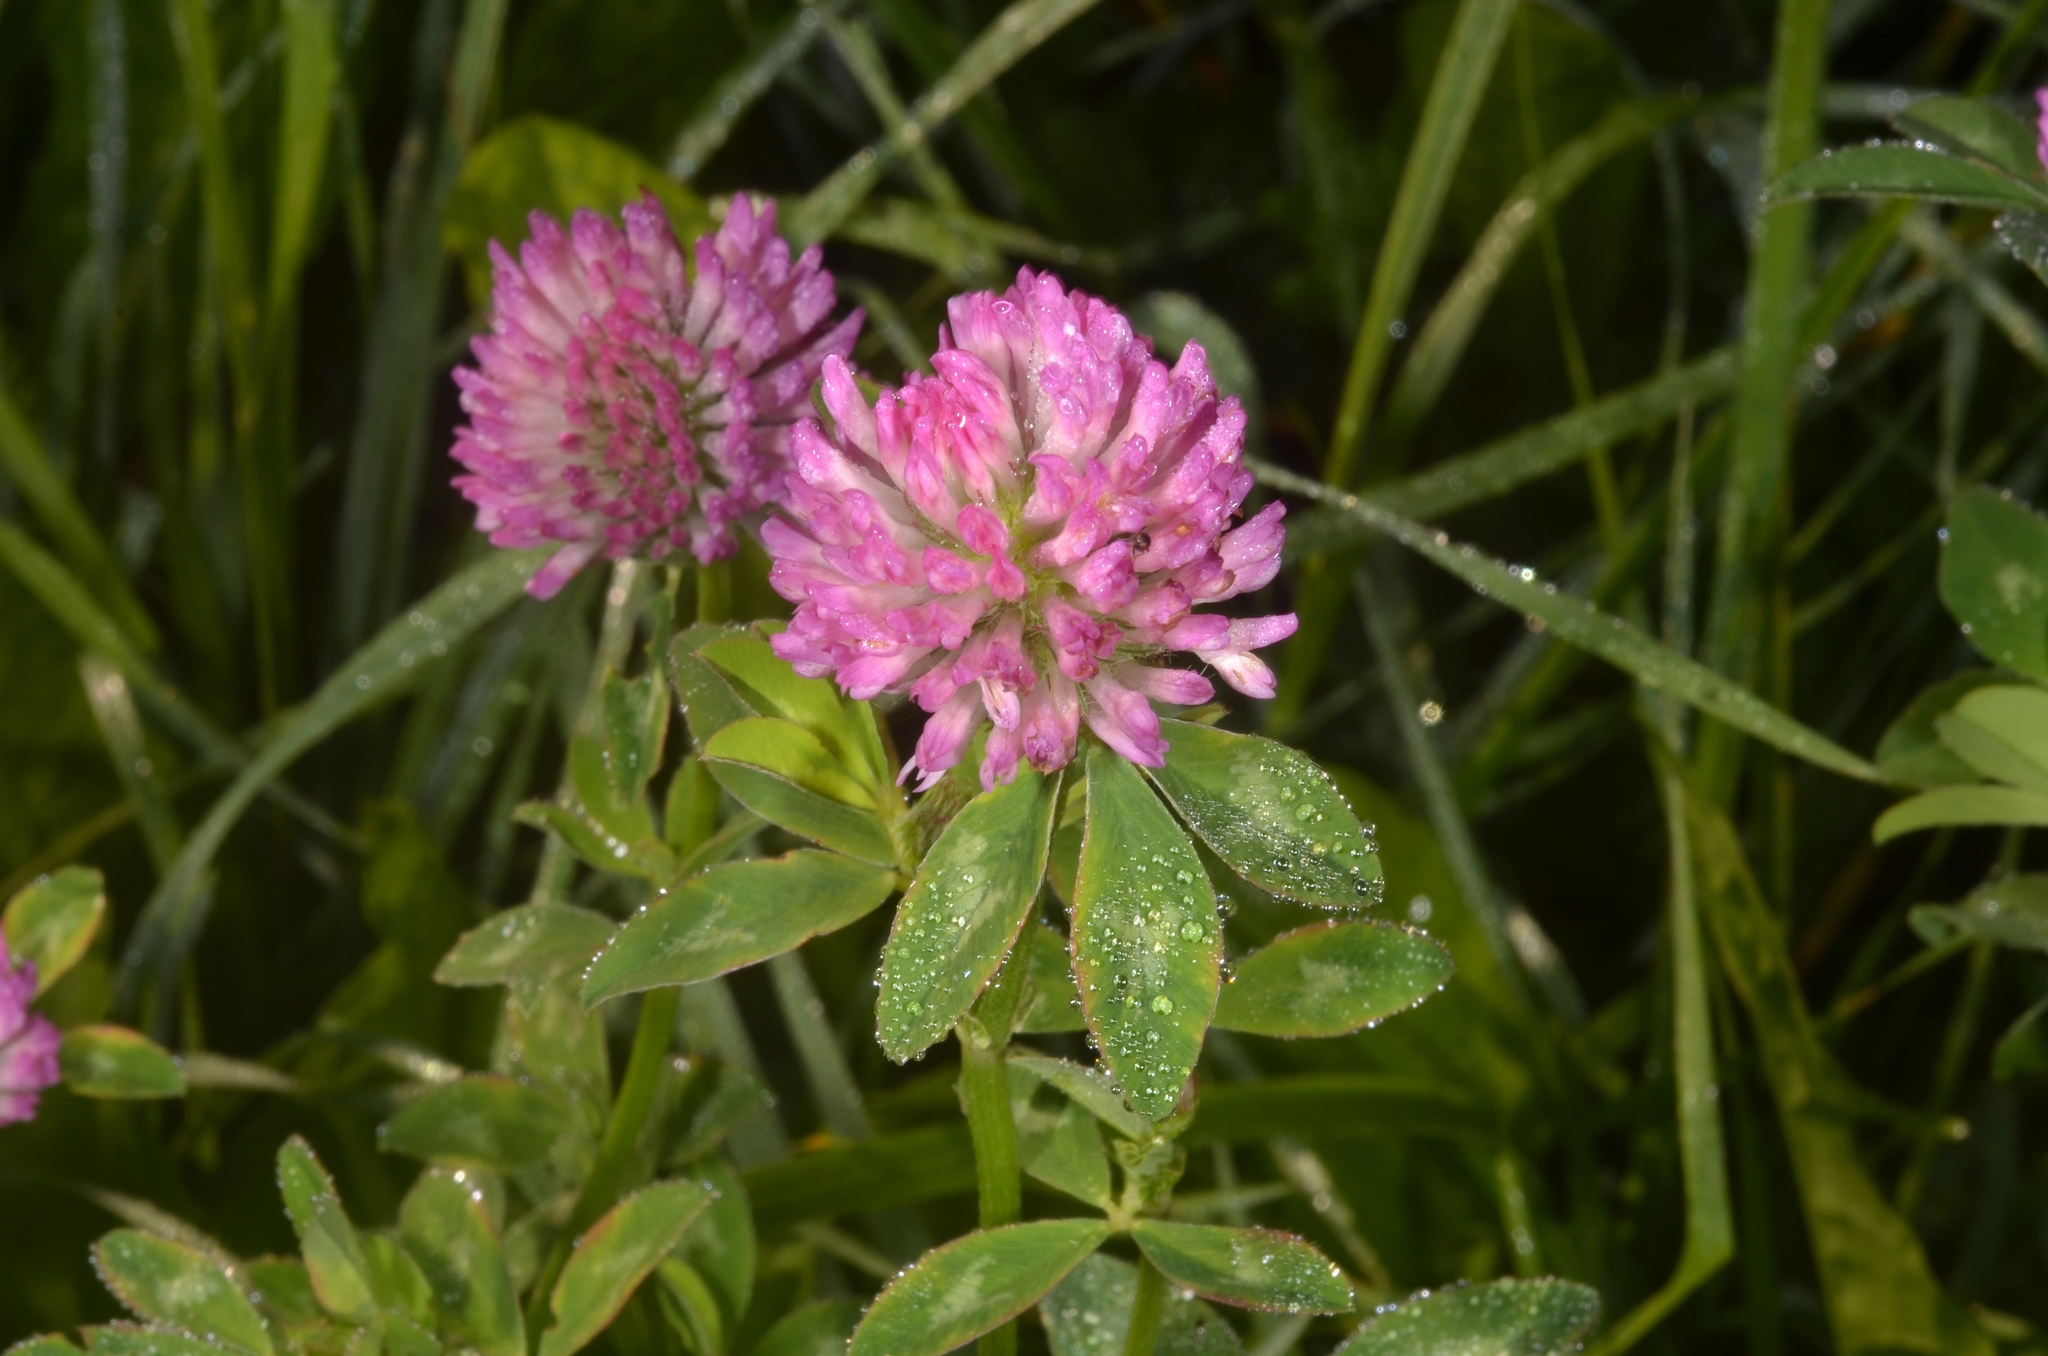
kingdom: Plantae
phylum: Tracheophyta
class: Magnoliopsida
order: Fabales
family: Fabaceae
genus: Trifolium
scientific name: Trifolium pratense
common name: Red clover
